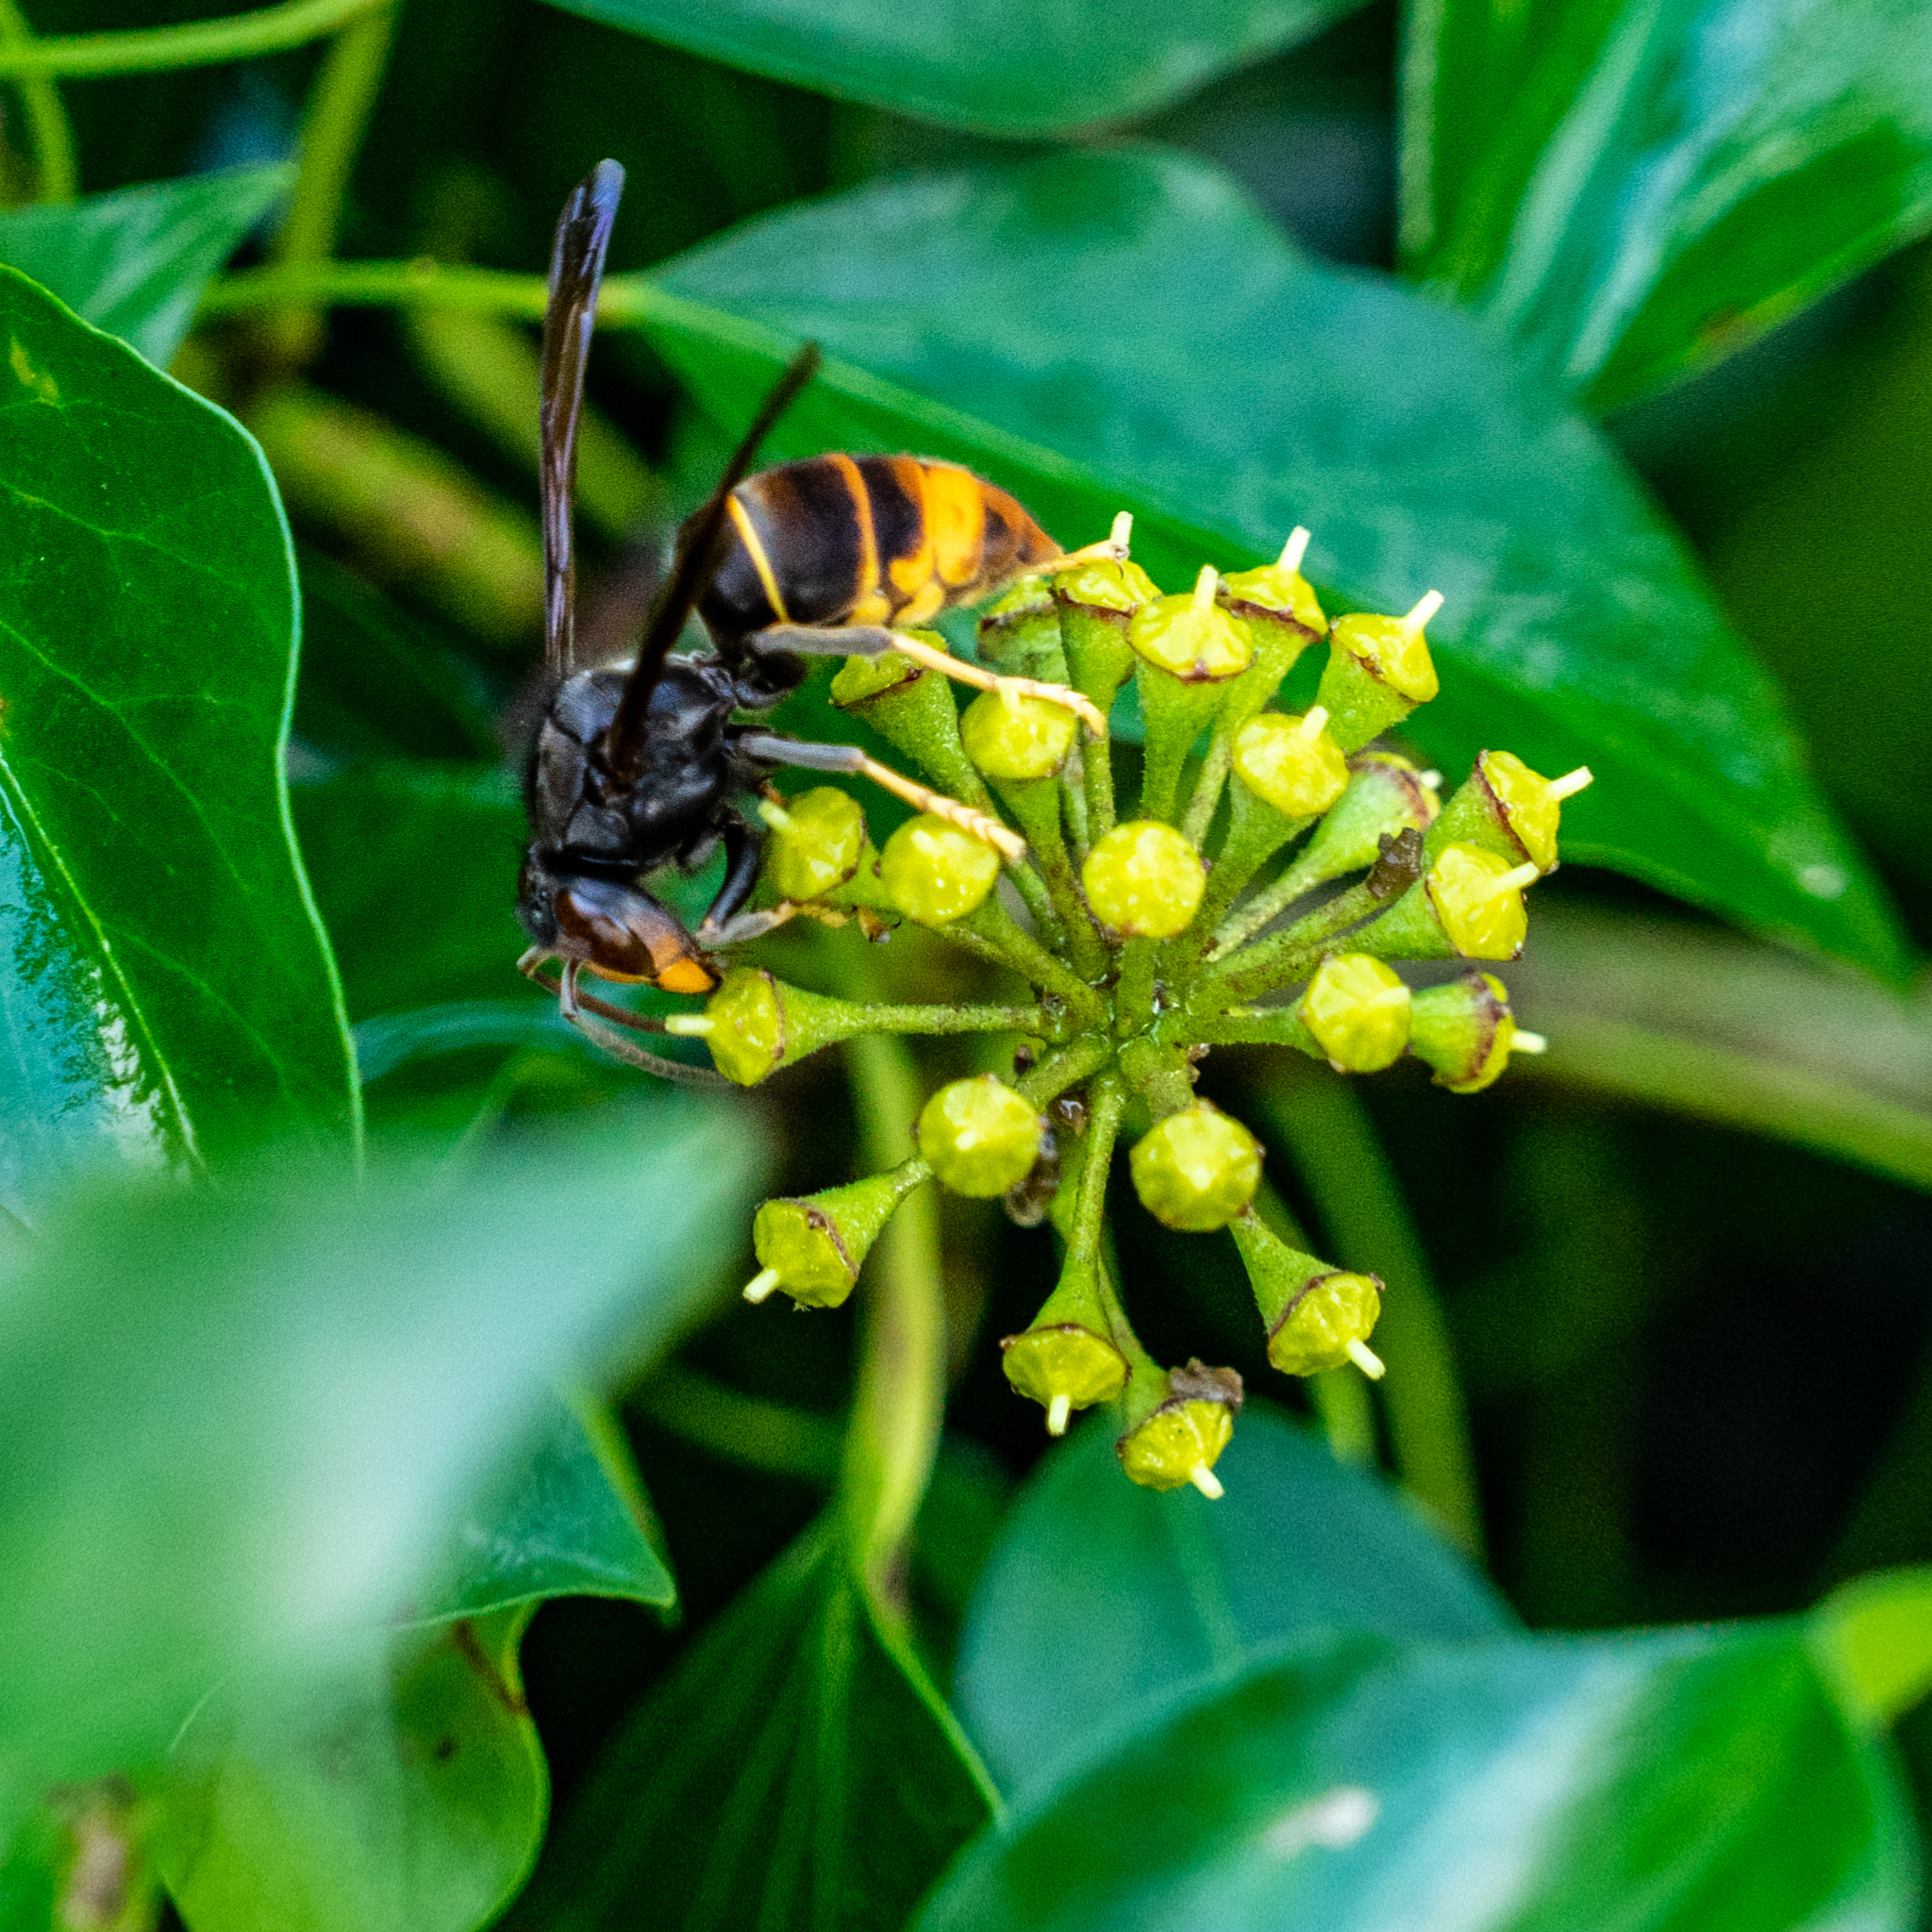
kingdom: Animalia
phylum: Arthropoda
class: Insecta
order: Hymenoptera
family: Vespidae
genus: Vespa
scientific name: Vespa velutina
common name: Asian hornet
